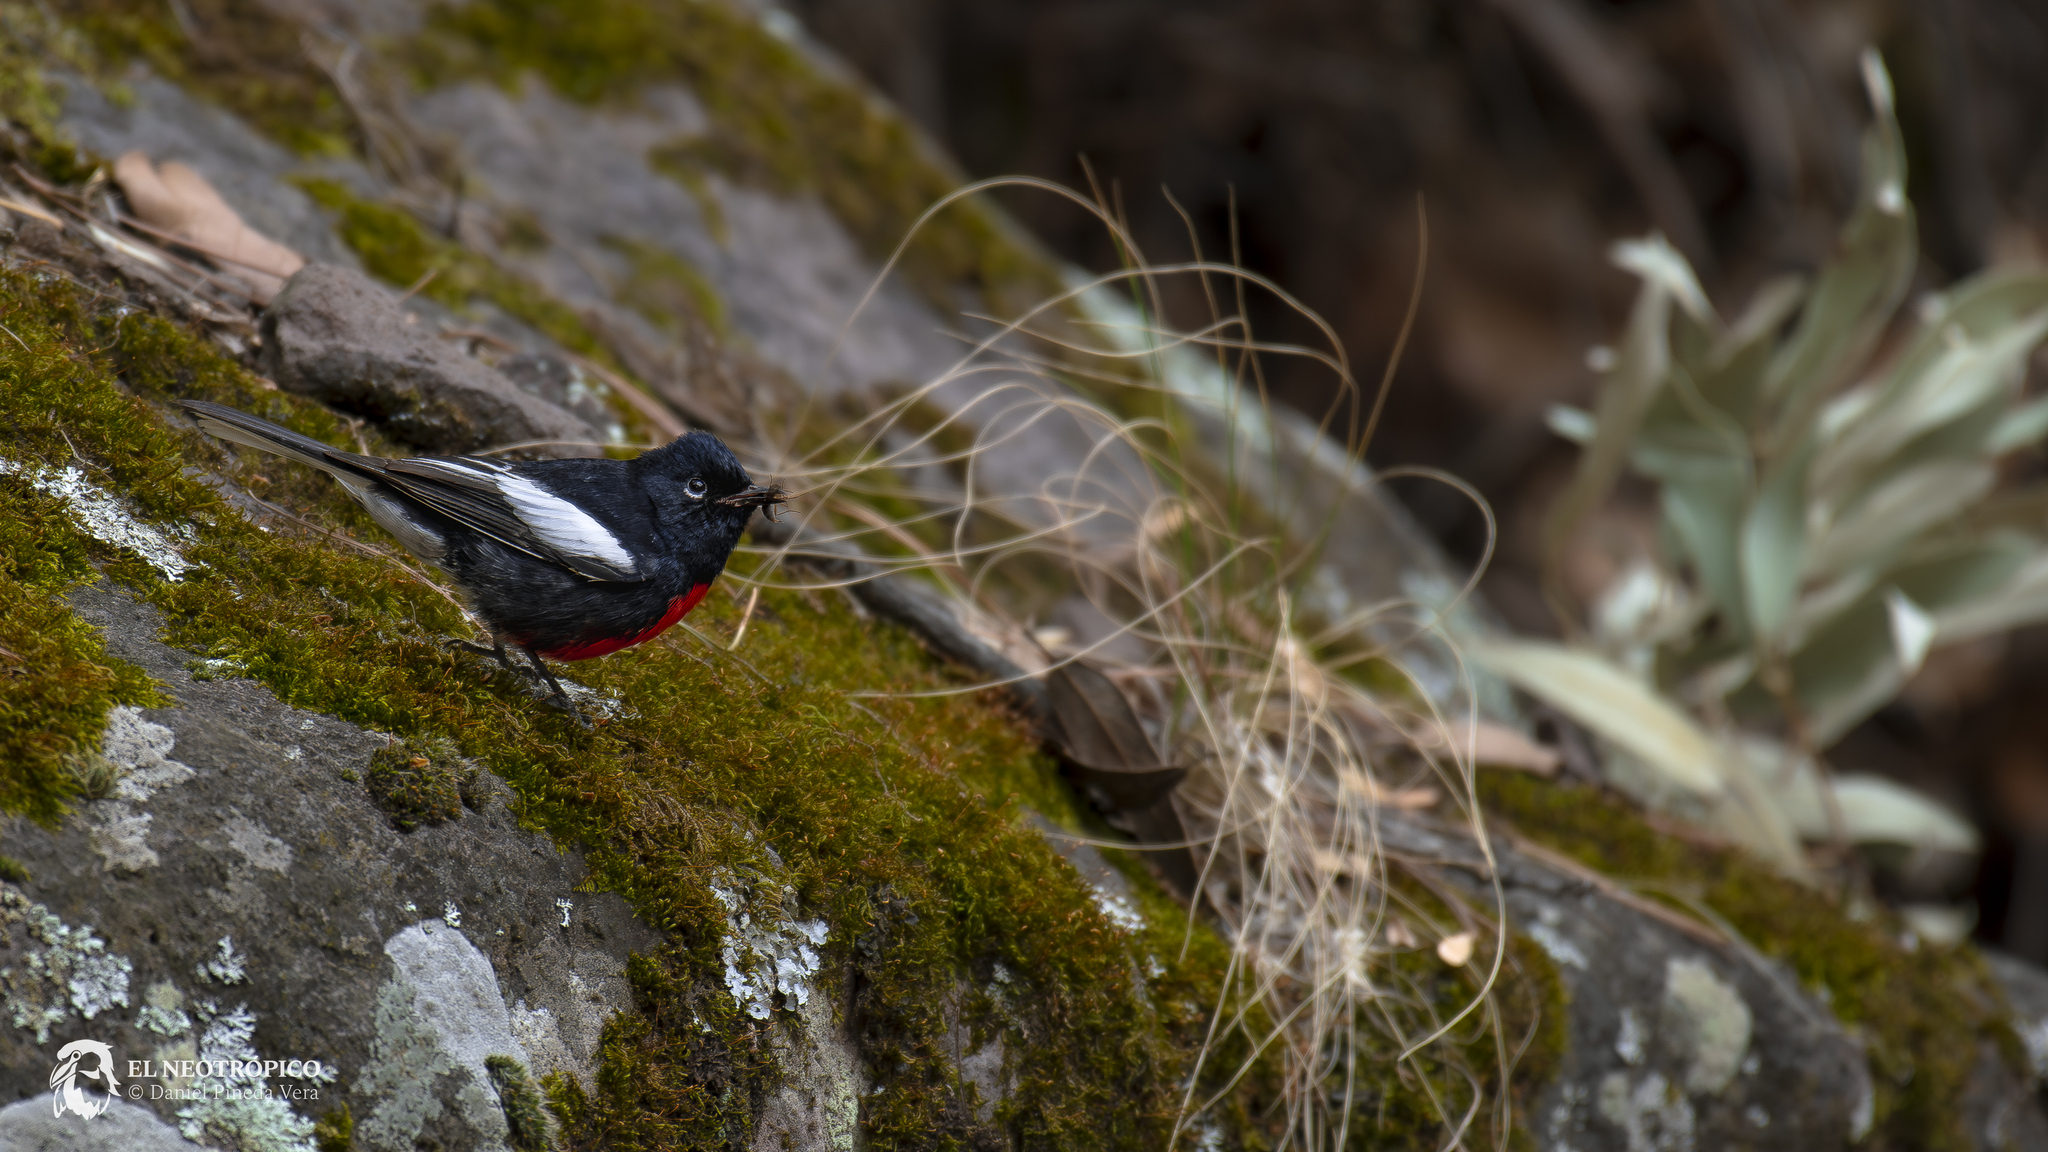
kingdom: Animalia
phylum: Chordata
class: Aves
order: Passeriformes
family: Parulidae
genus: Myioborus
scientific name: Myioborus pictus
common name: Painted whitestart
